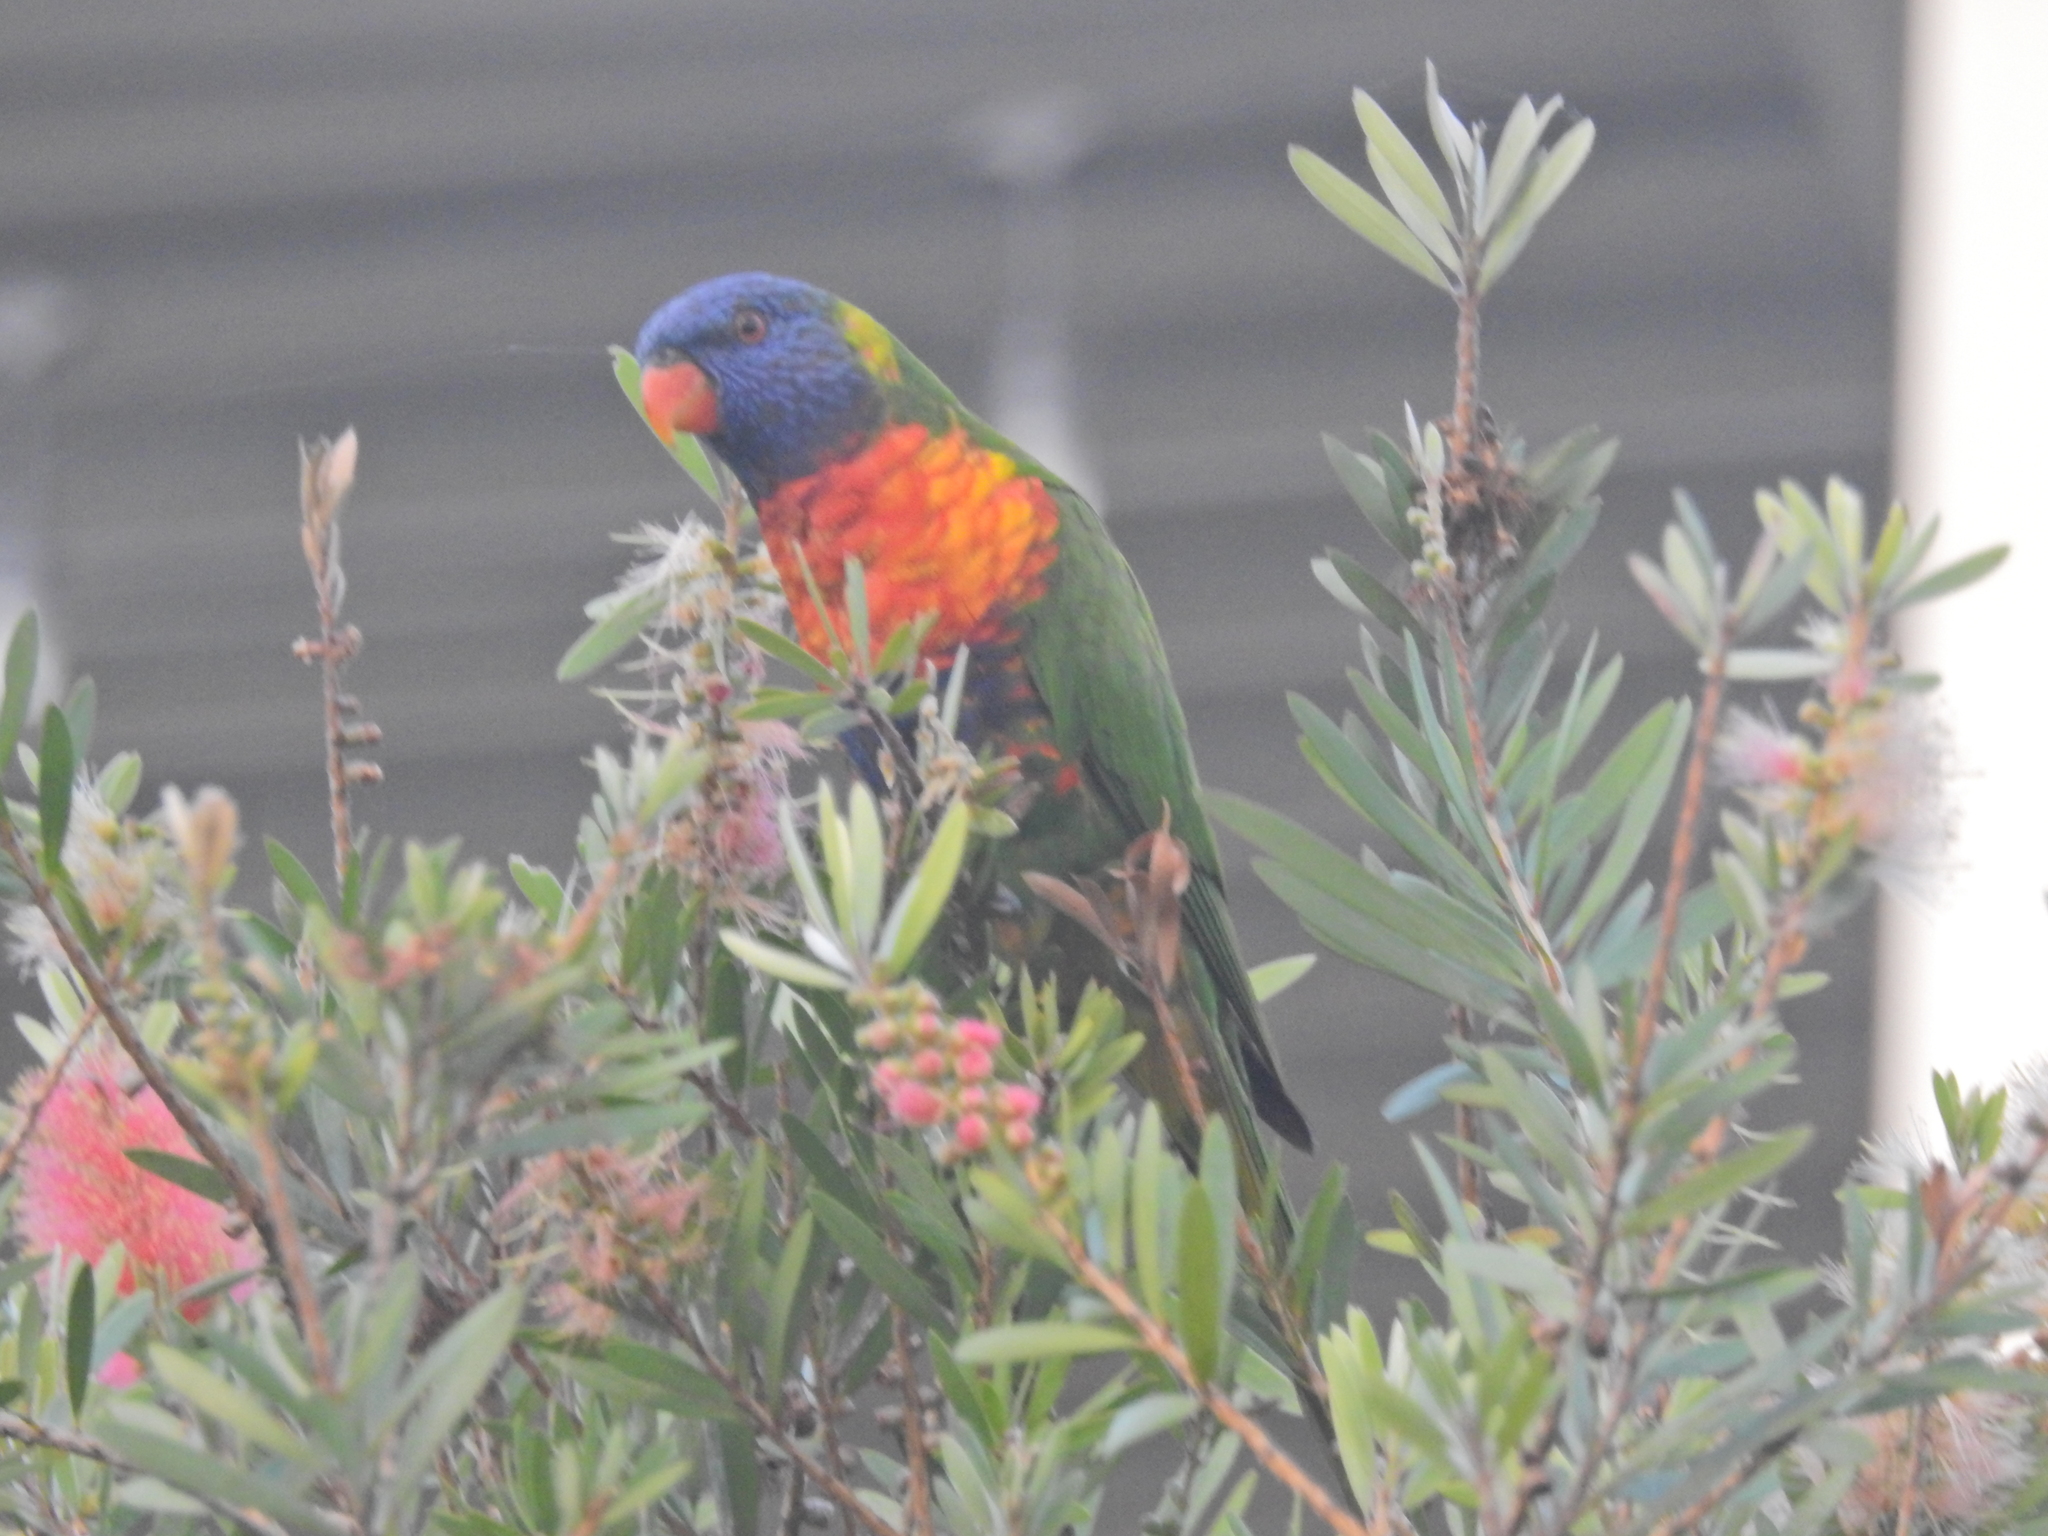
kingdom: Animalia
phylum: Chordata
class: Aves
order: Psittaciformes
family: Psittacidae
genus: Trichoglossus
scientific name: Trichoglossus haematodus
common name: Coconut lorikeet
